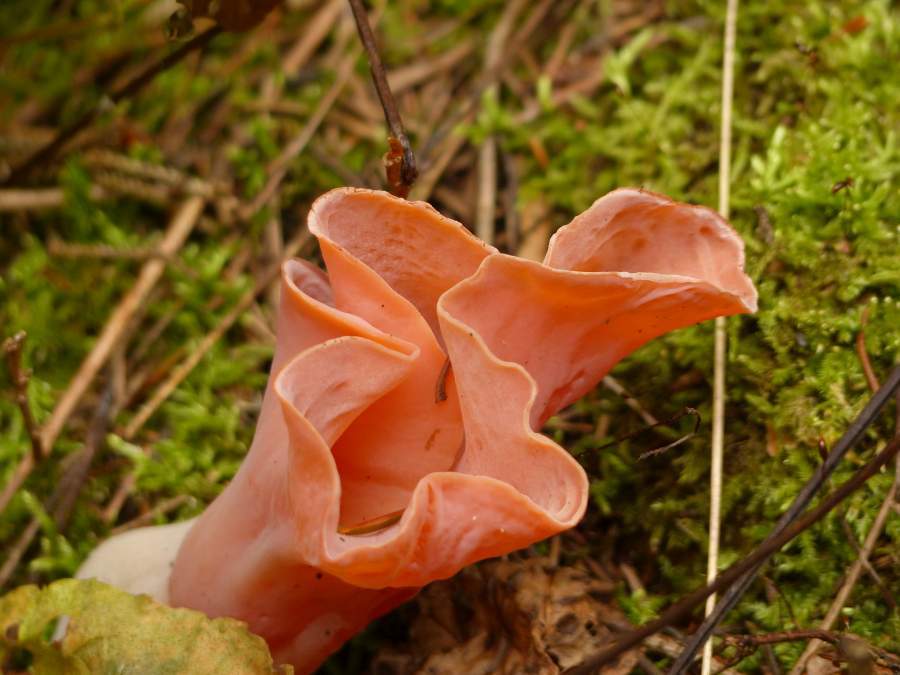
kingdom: Fungi
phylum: Basidiomycota
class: Agaricomycetes
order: Auriculariales
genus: Guepinia
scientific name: Guepinia helvelloides
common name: Salmon salad
